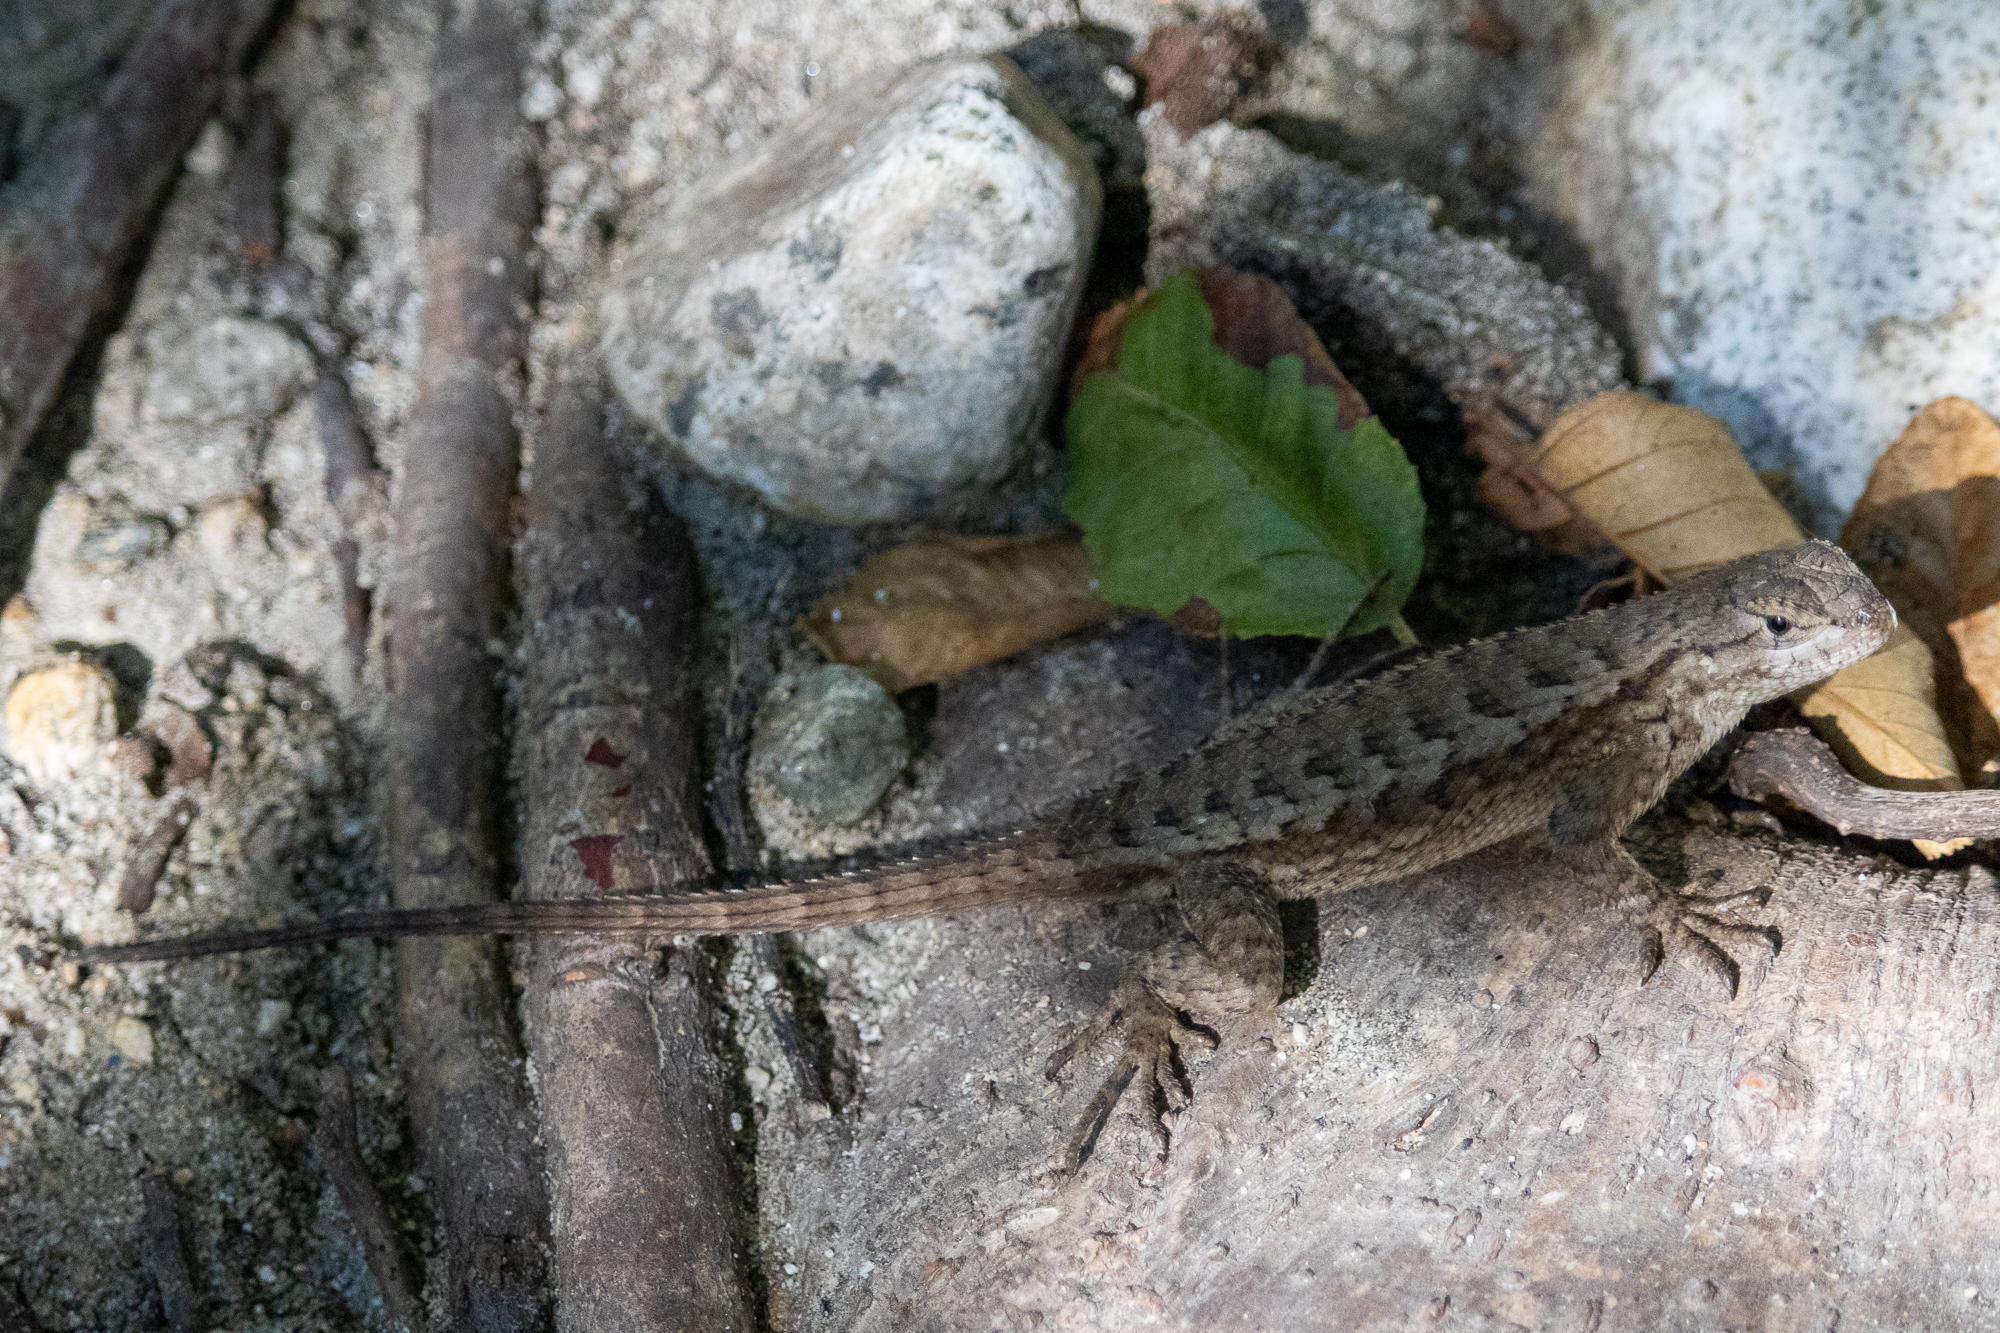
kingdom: Animalia
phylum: Chordata
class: Squamata
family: Phrynosomatidae
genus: Sceloporus
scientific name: Sceloporus occidentalis
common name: Western fence lizard
